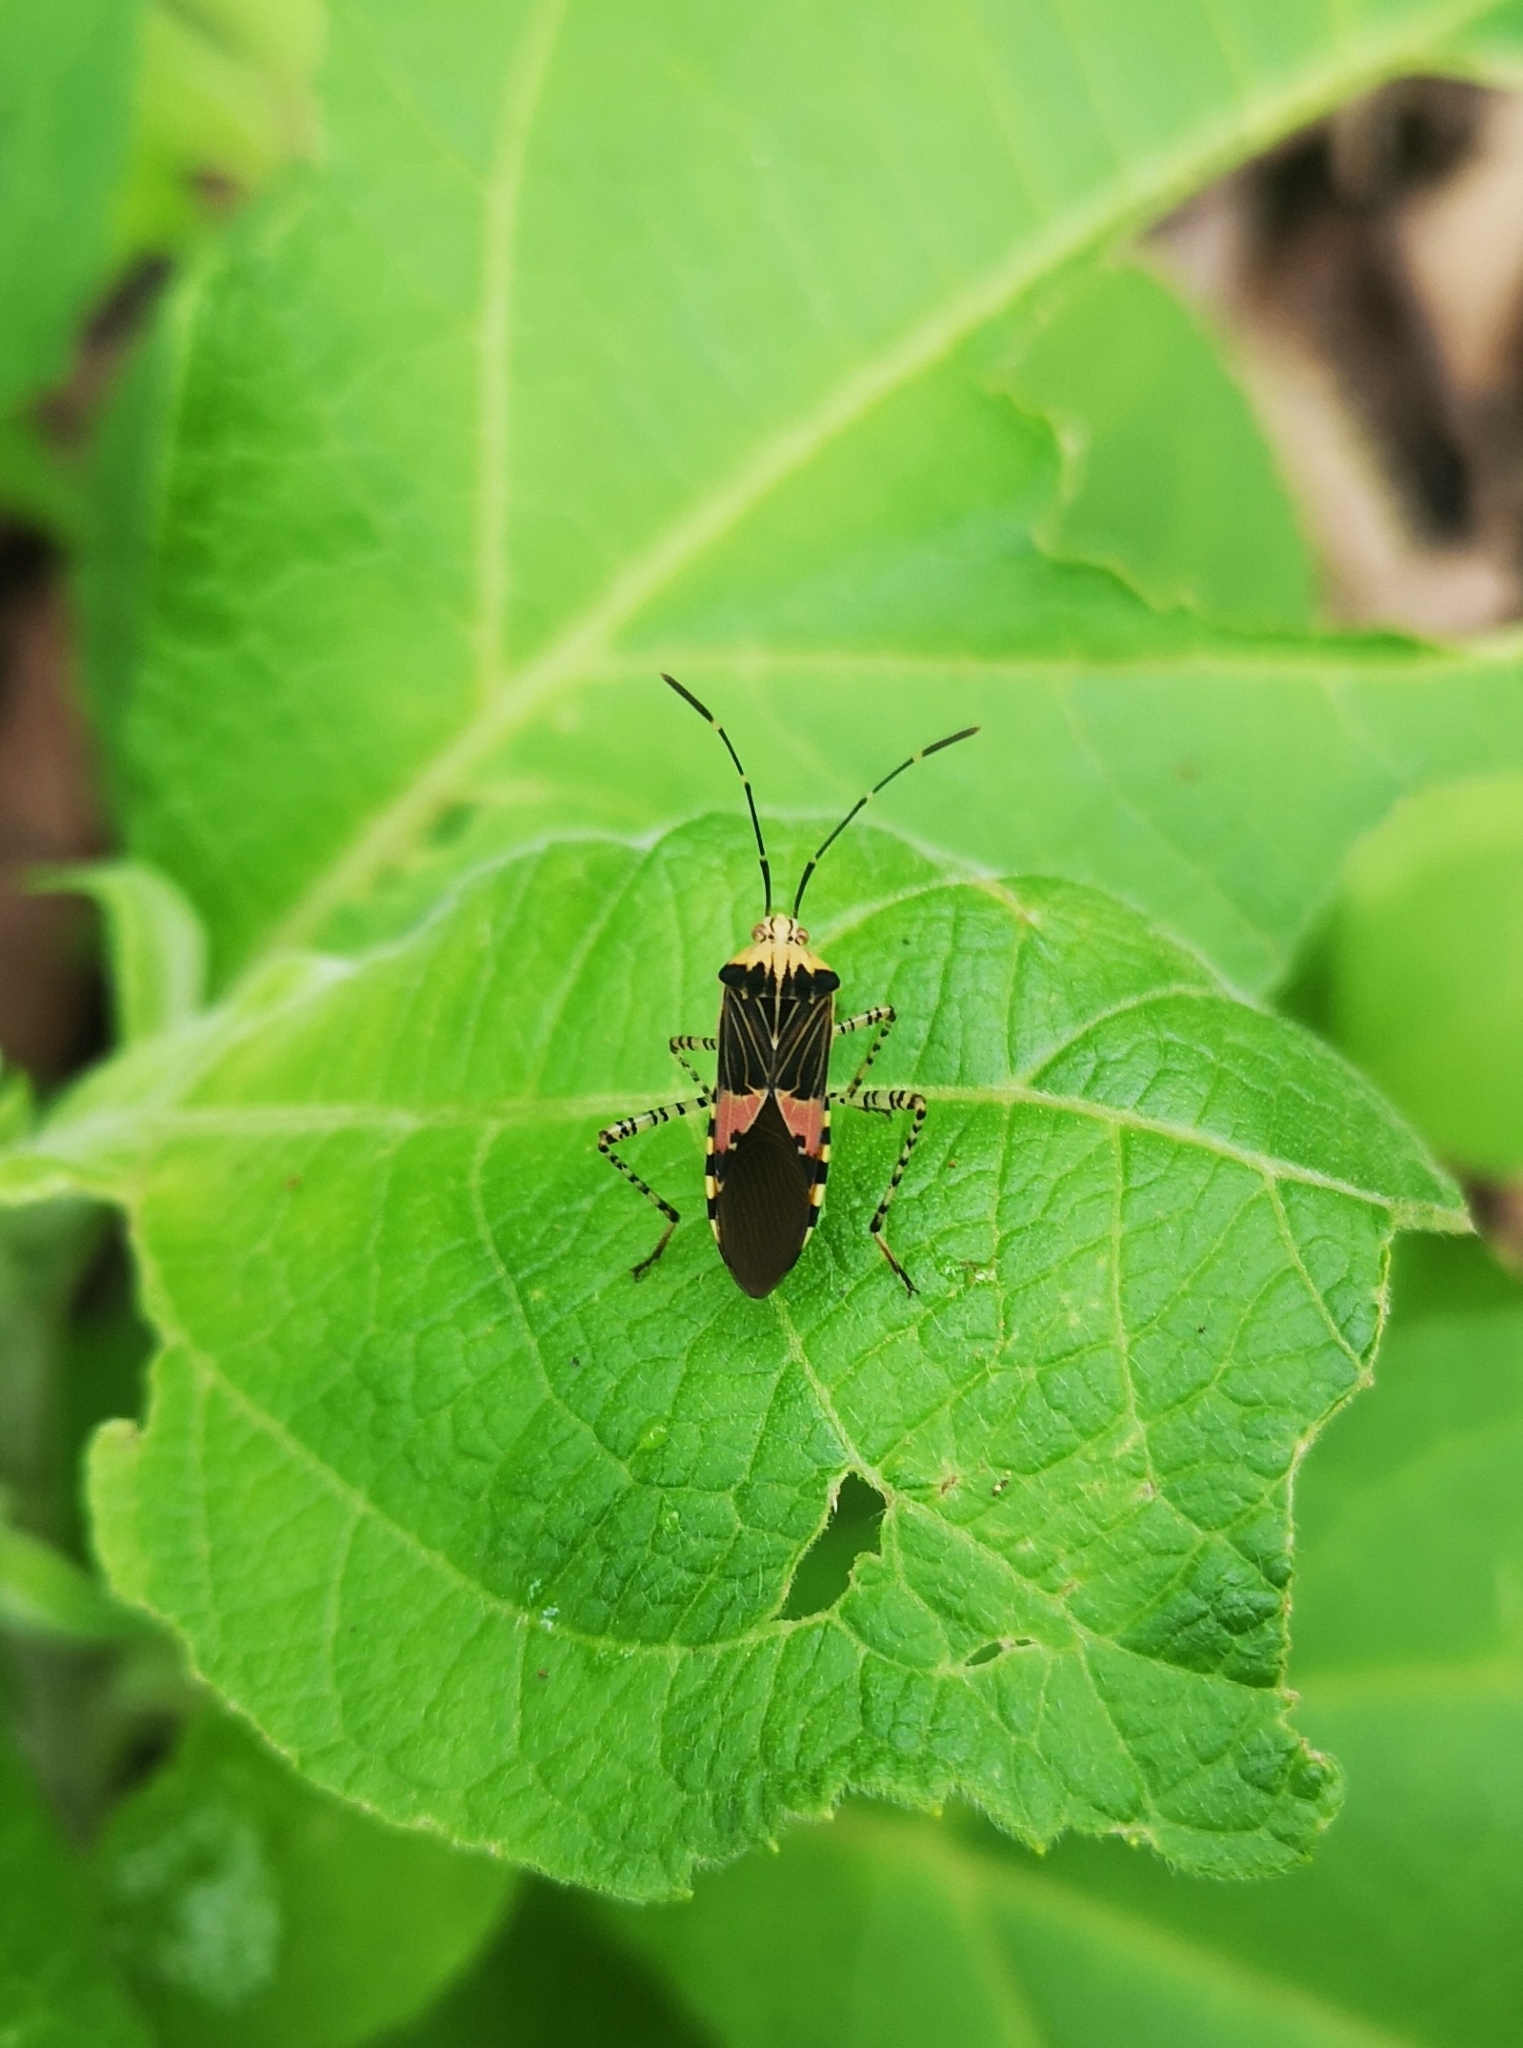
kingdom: Animalia
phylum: Arthropoda
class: Insecta
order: Hemiptera
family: Coreidae
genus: Hypselonotus
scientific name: Hypselonotus punctiventris
